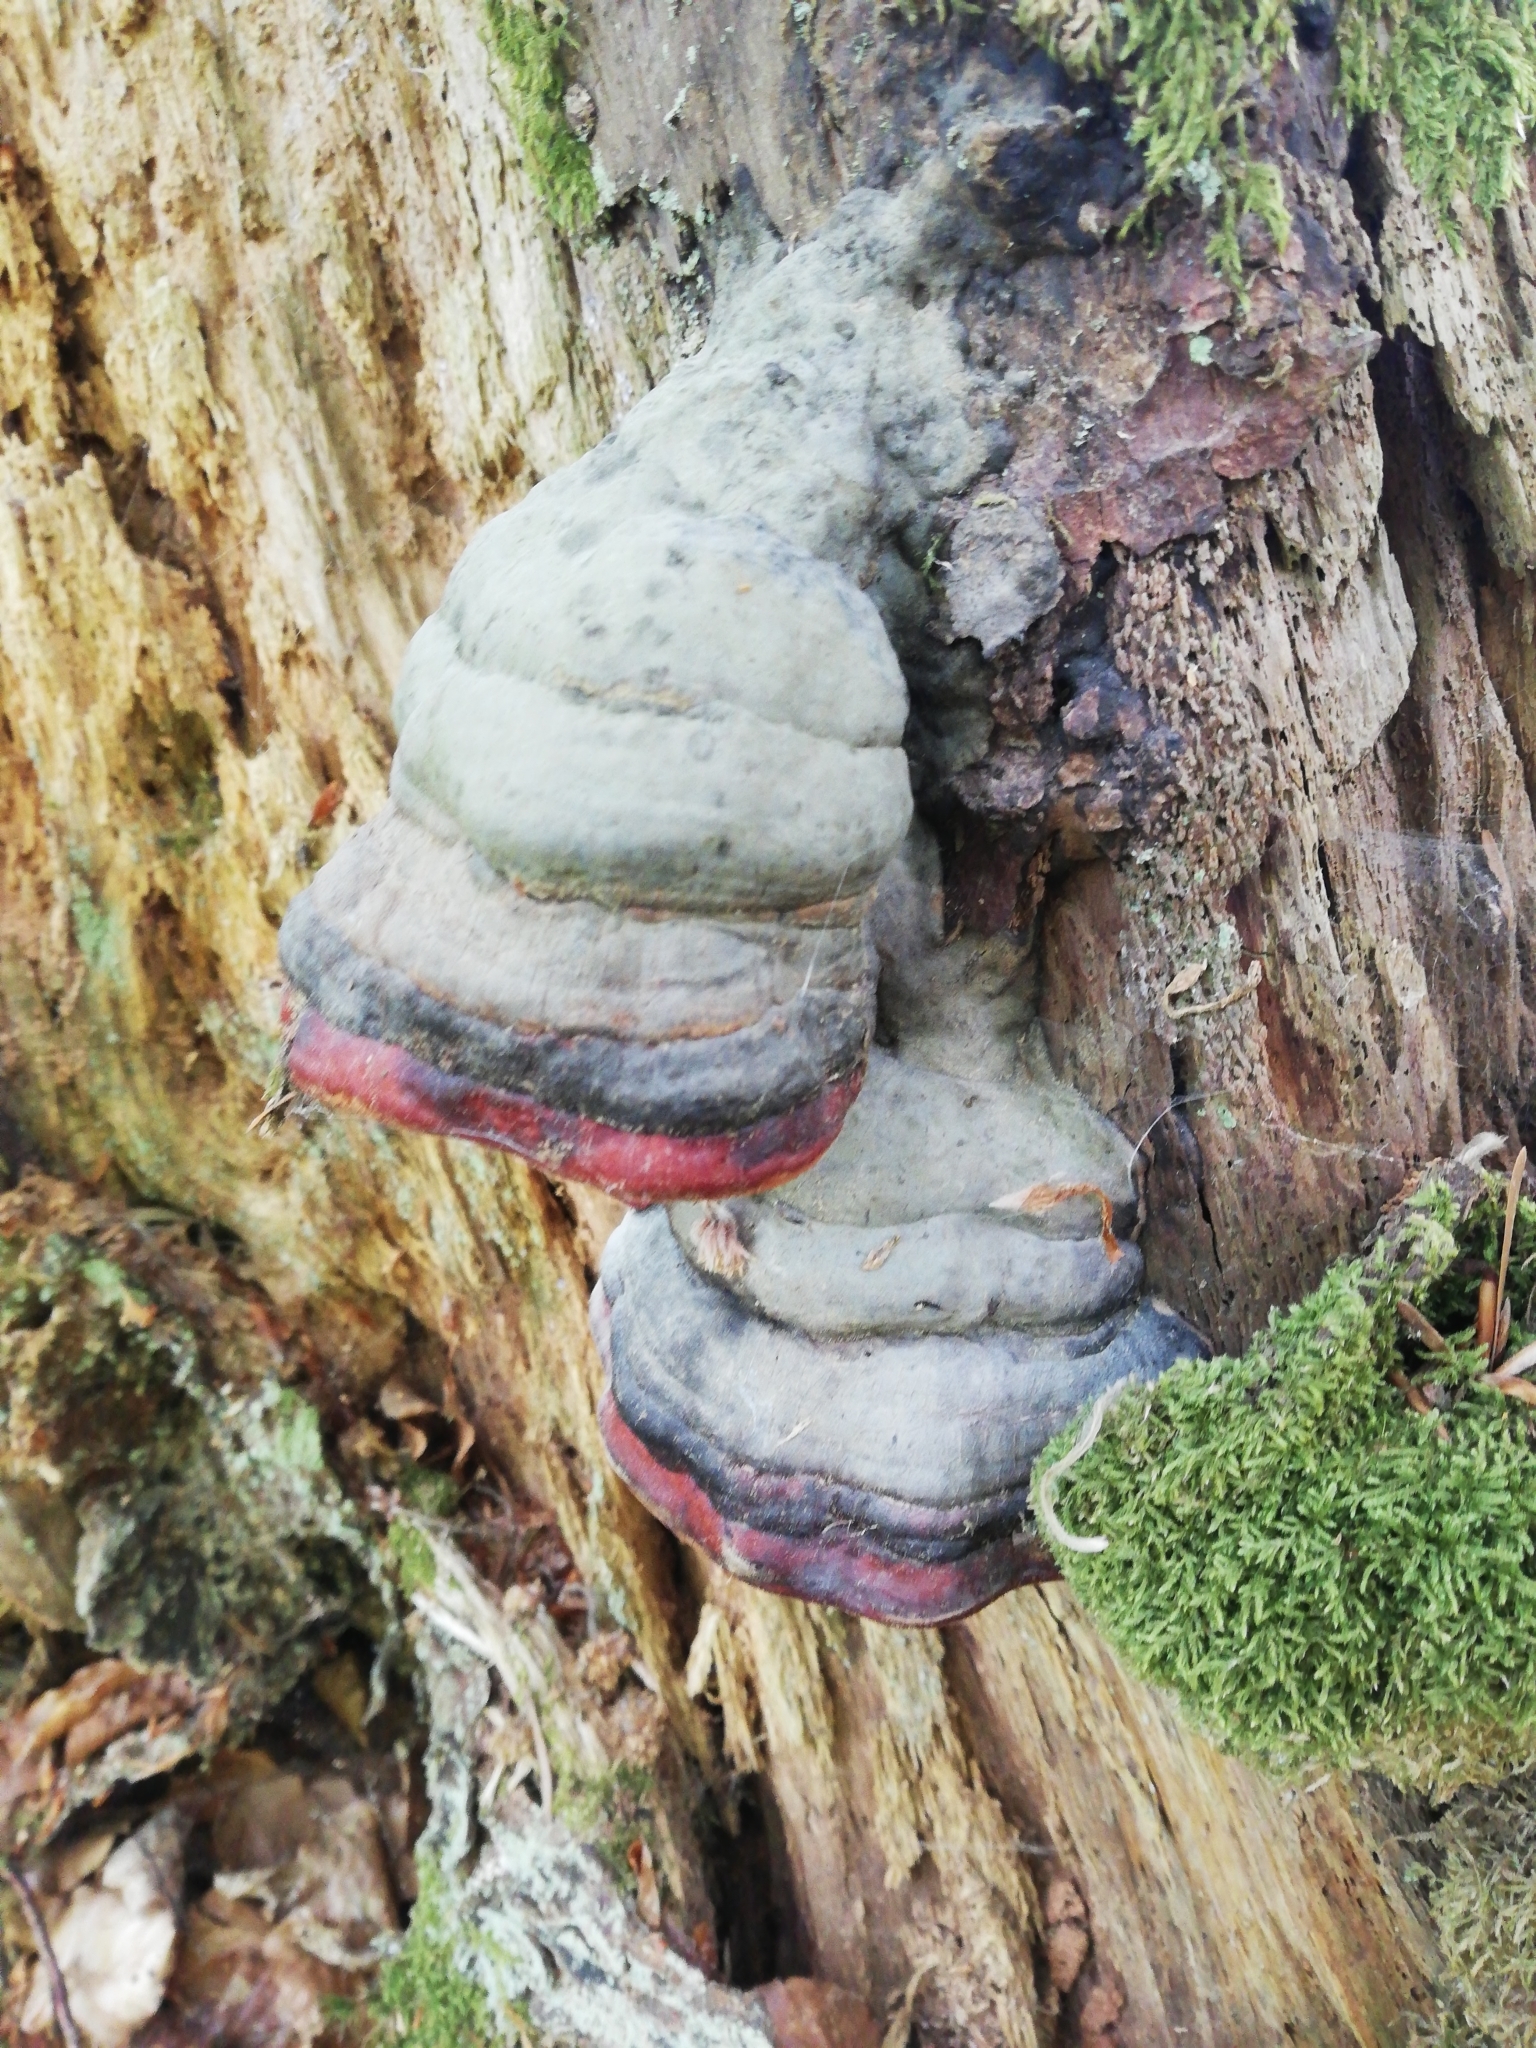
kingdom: Fungi
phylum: Basidiomycota
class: Agaricomycetes
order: Polyporales
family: Fomitopsidaceae
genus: Fomitopsis
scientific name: Fomitopsis pinicola
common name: Red-belted bracket
